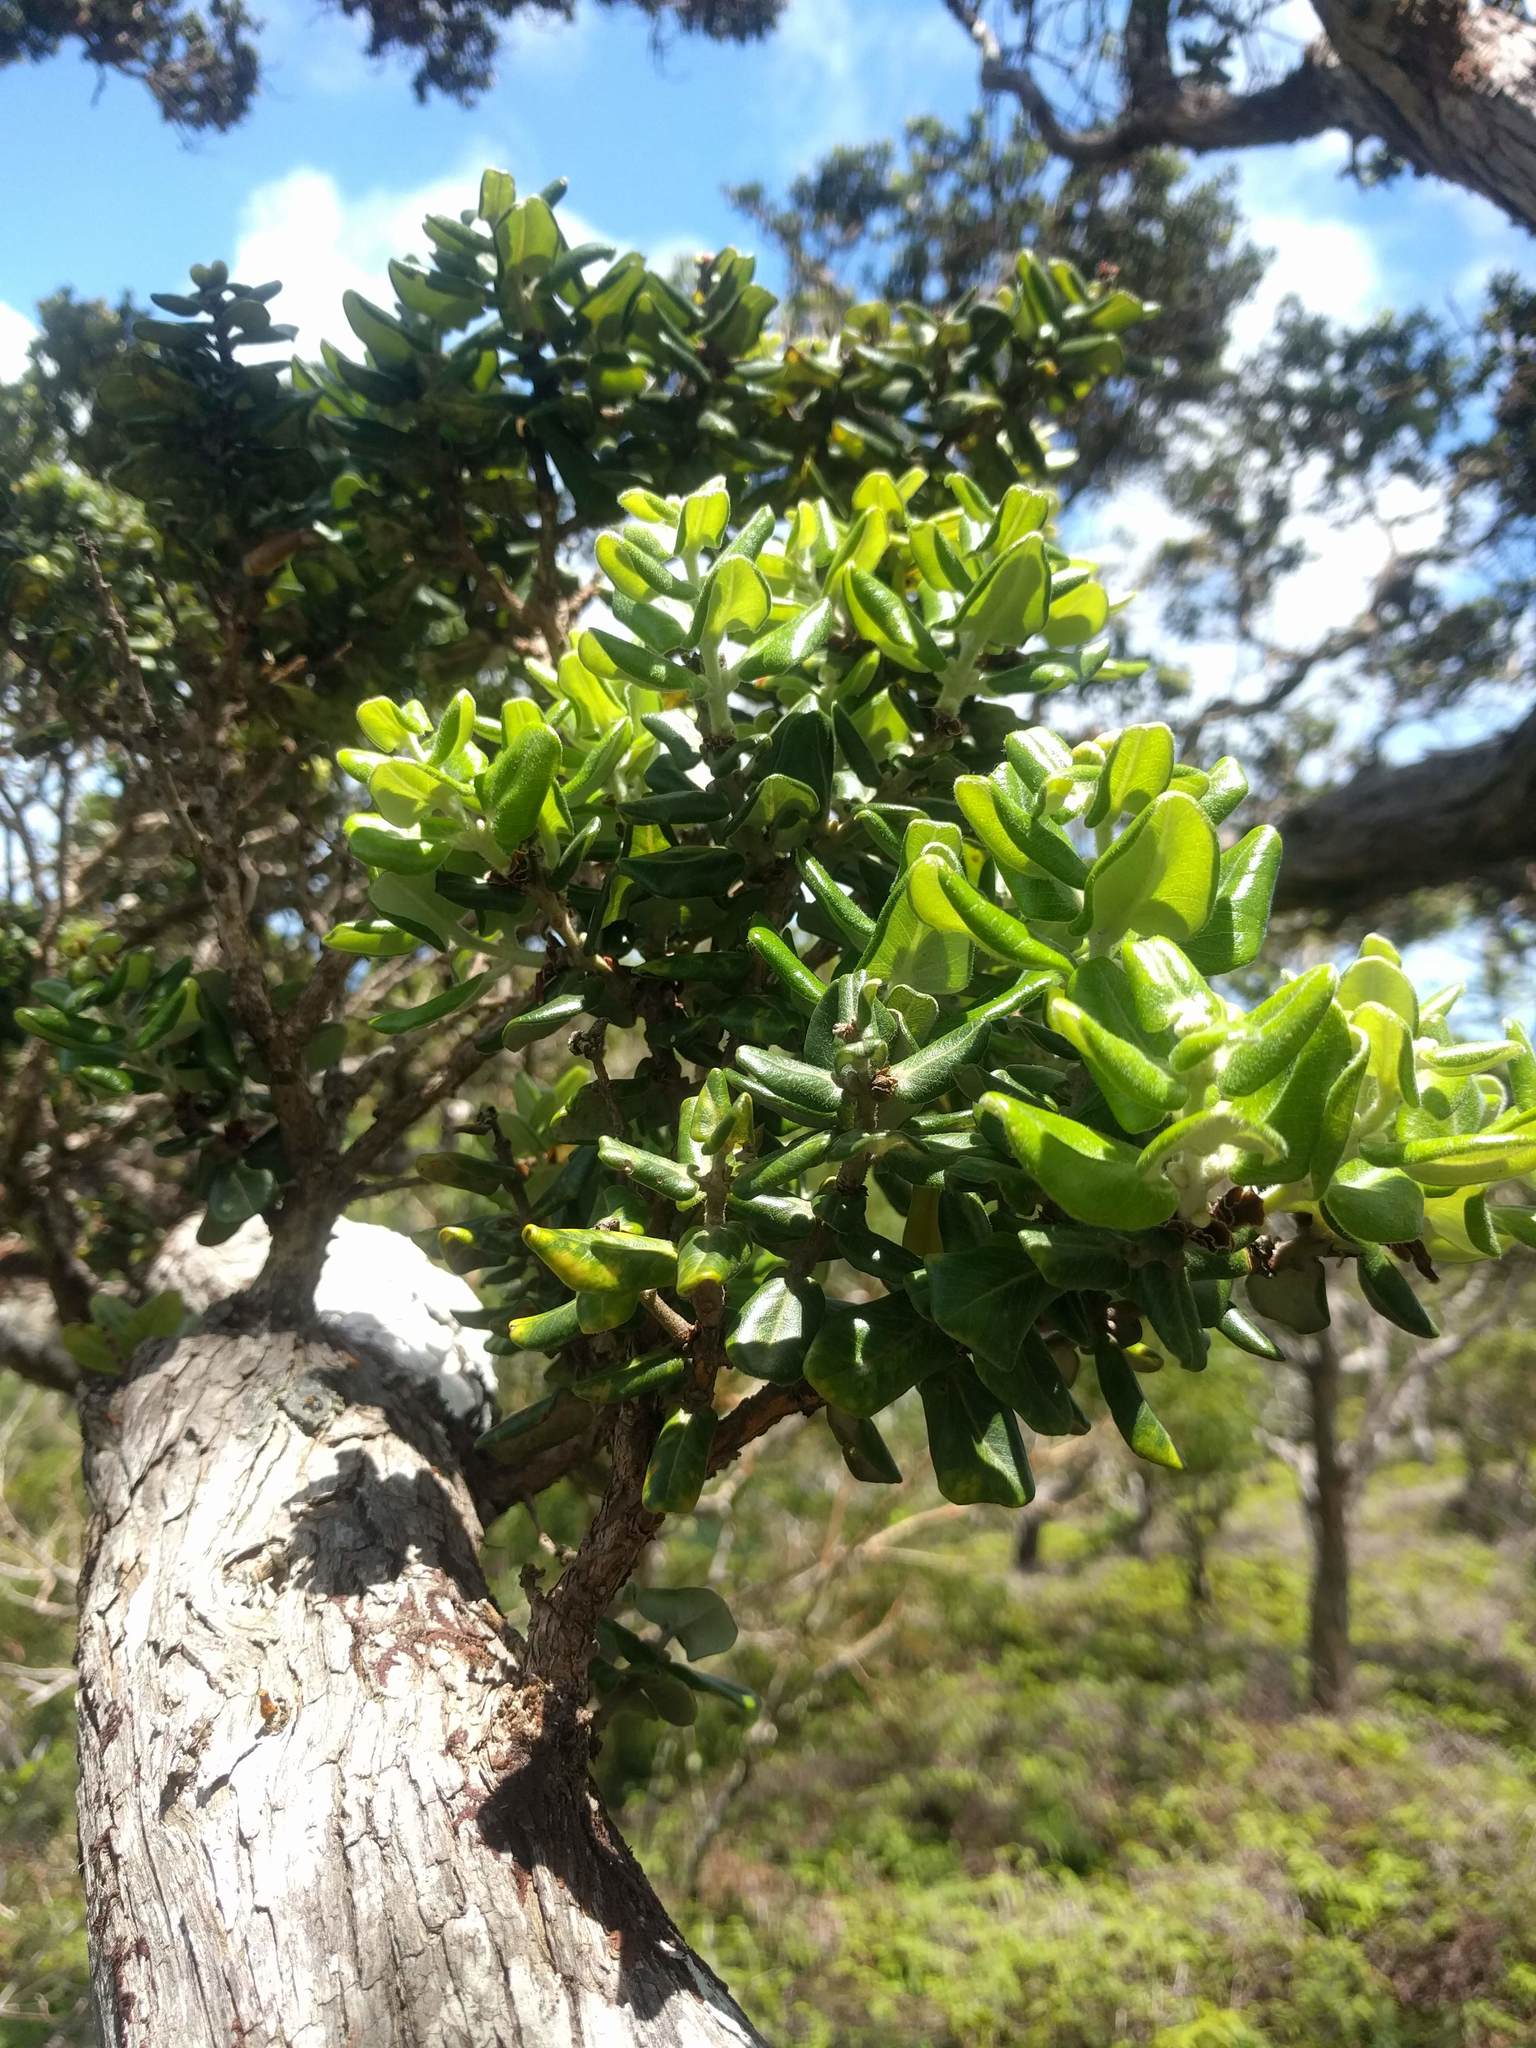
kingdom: Plantae
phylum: Tracheophyta
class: Magnoliopsida
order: Myrtales
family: Myrtaceae
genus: Metrosideros
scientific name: Metrosideros polymorpha
